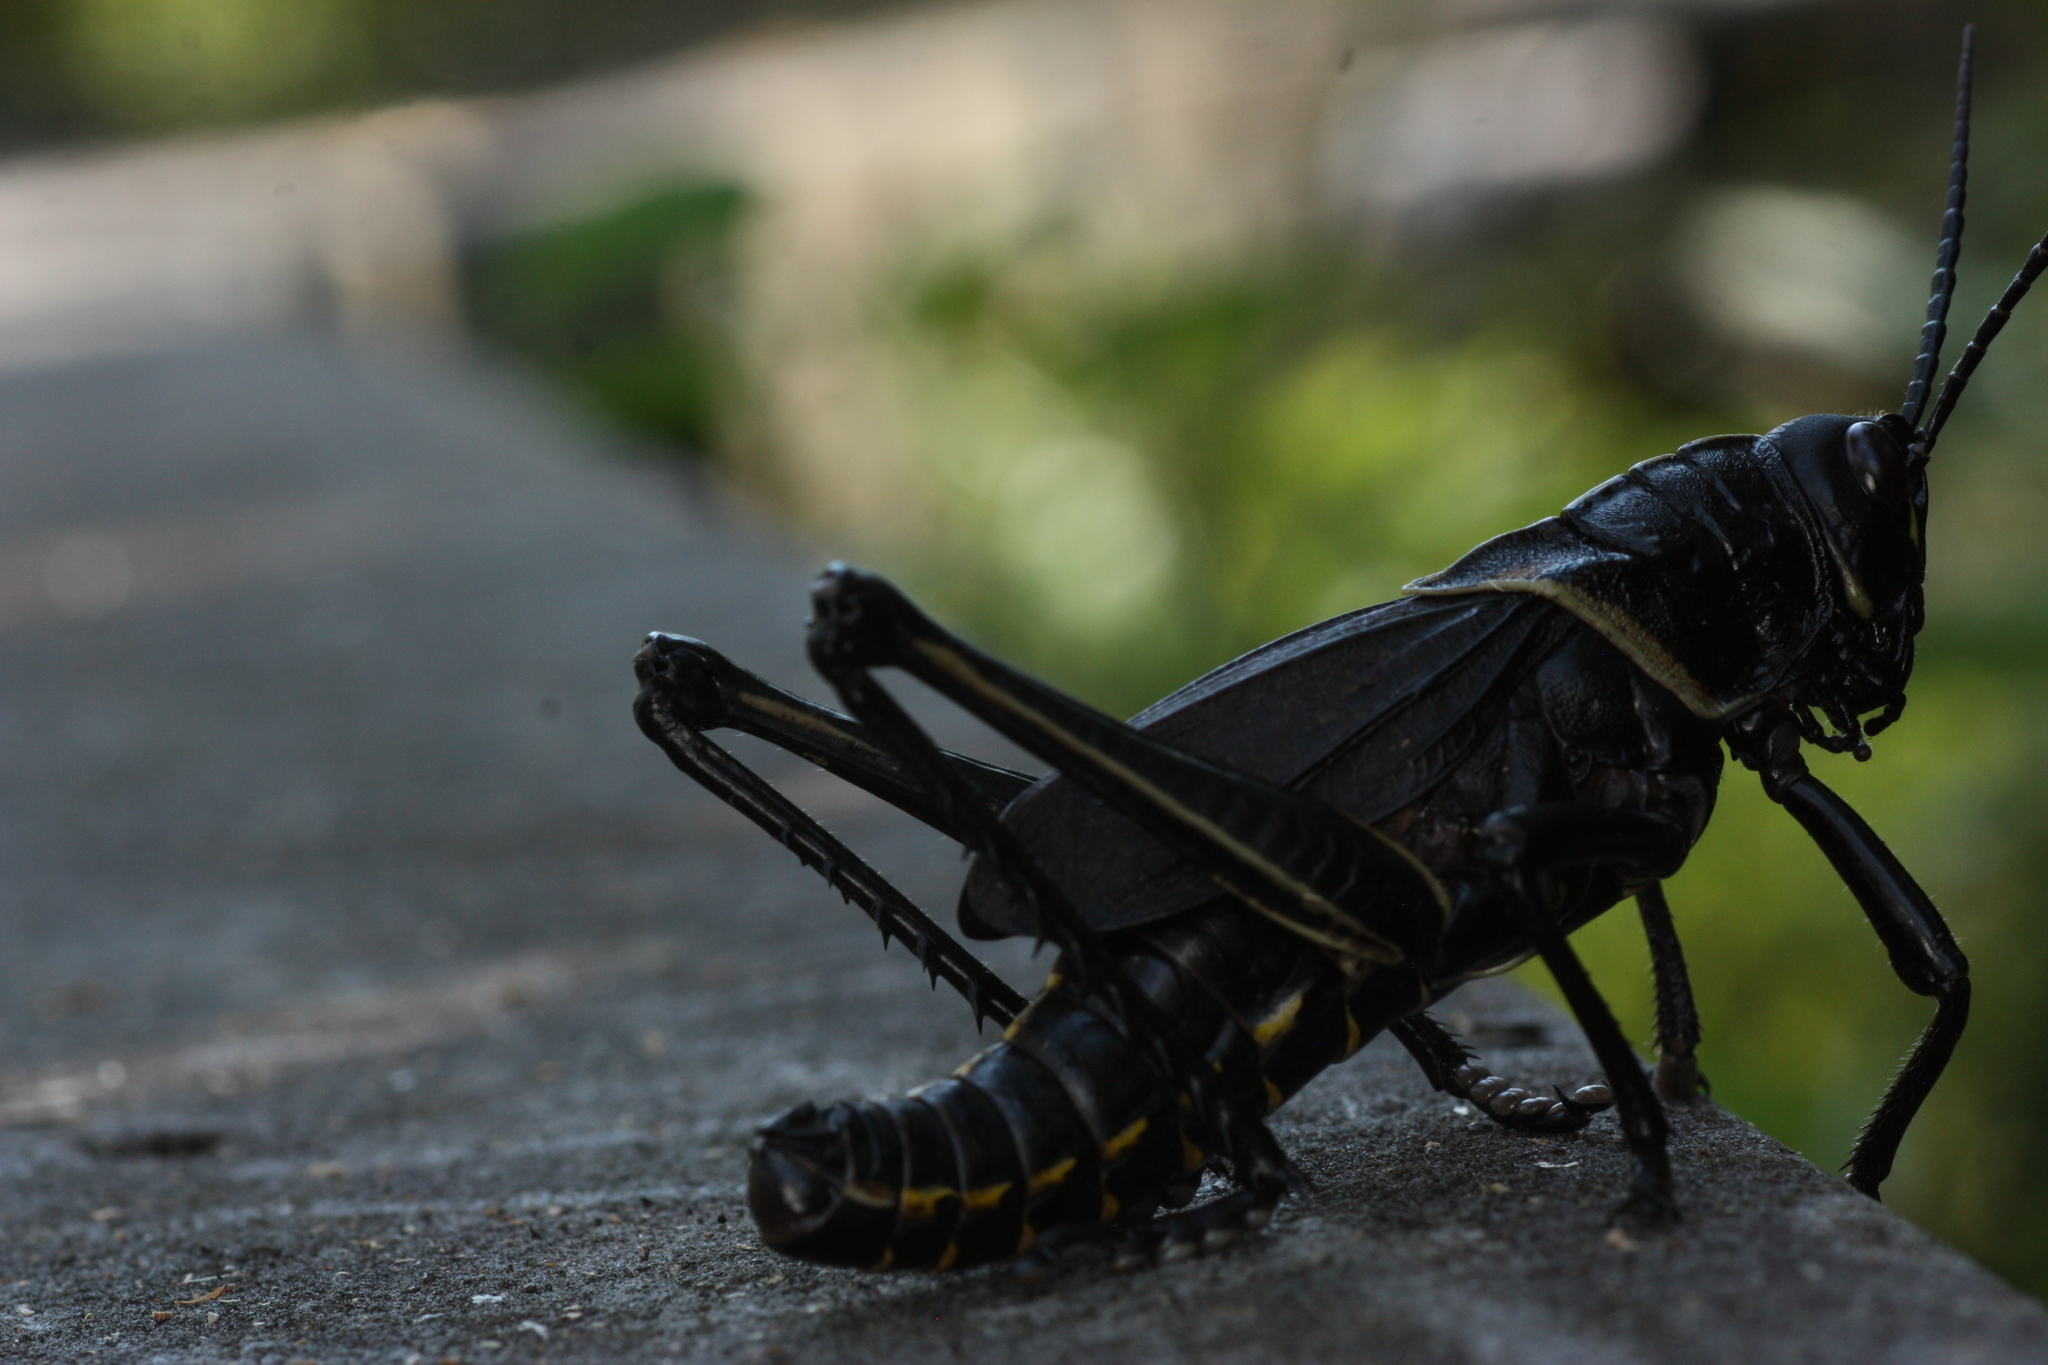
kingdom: Animalia
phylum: Arthropoda
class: Insecta
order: Orthoptera
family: Romaleidae
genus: Romalea
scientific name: Romalea microptera
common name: Eastern lubber grasshopper
